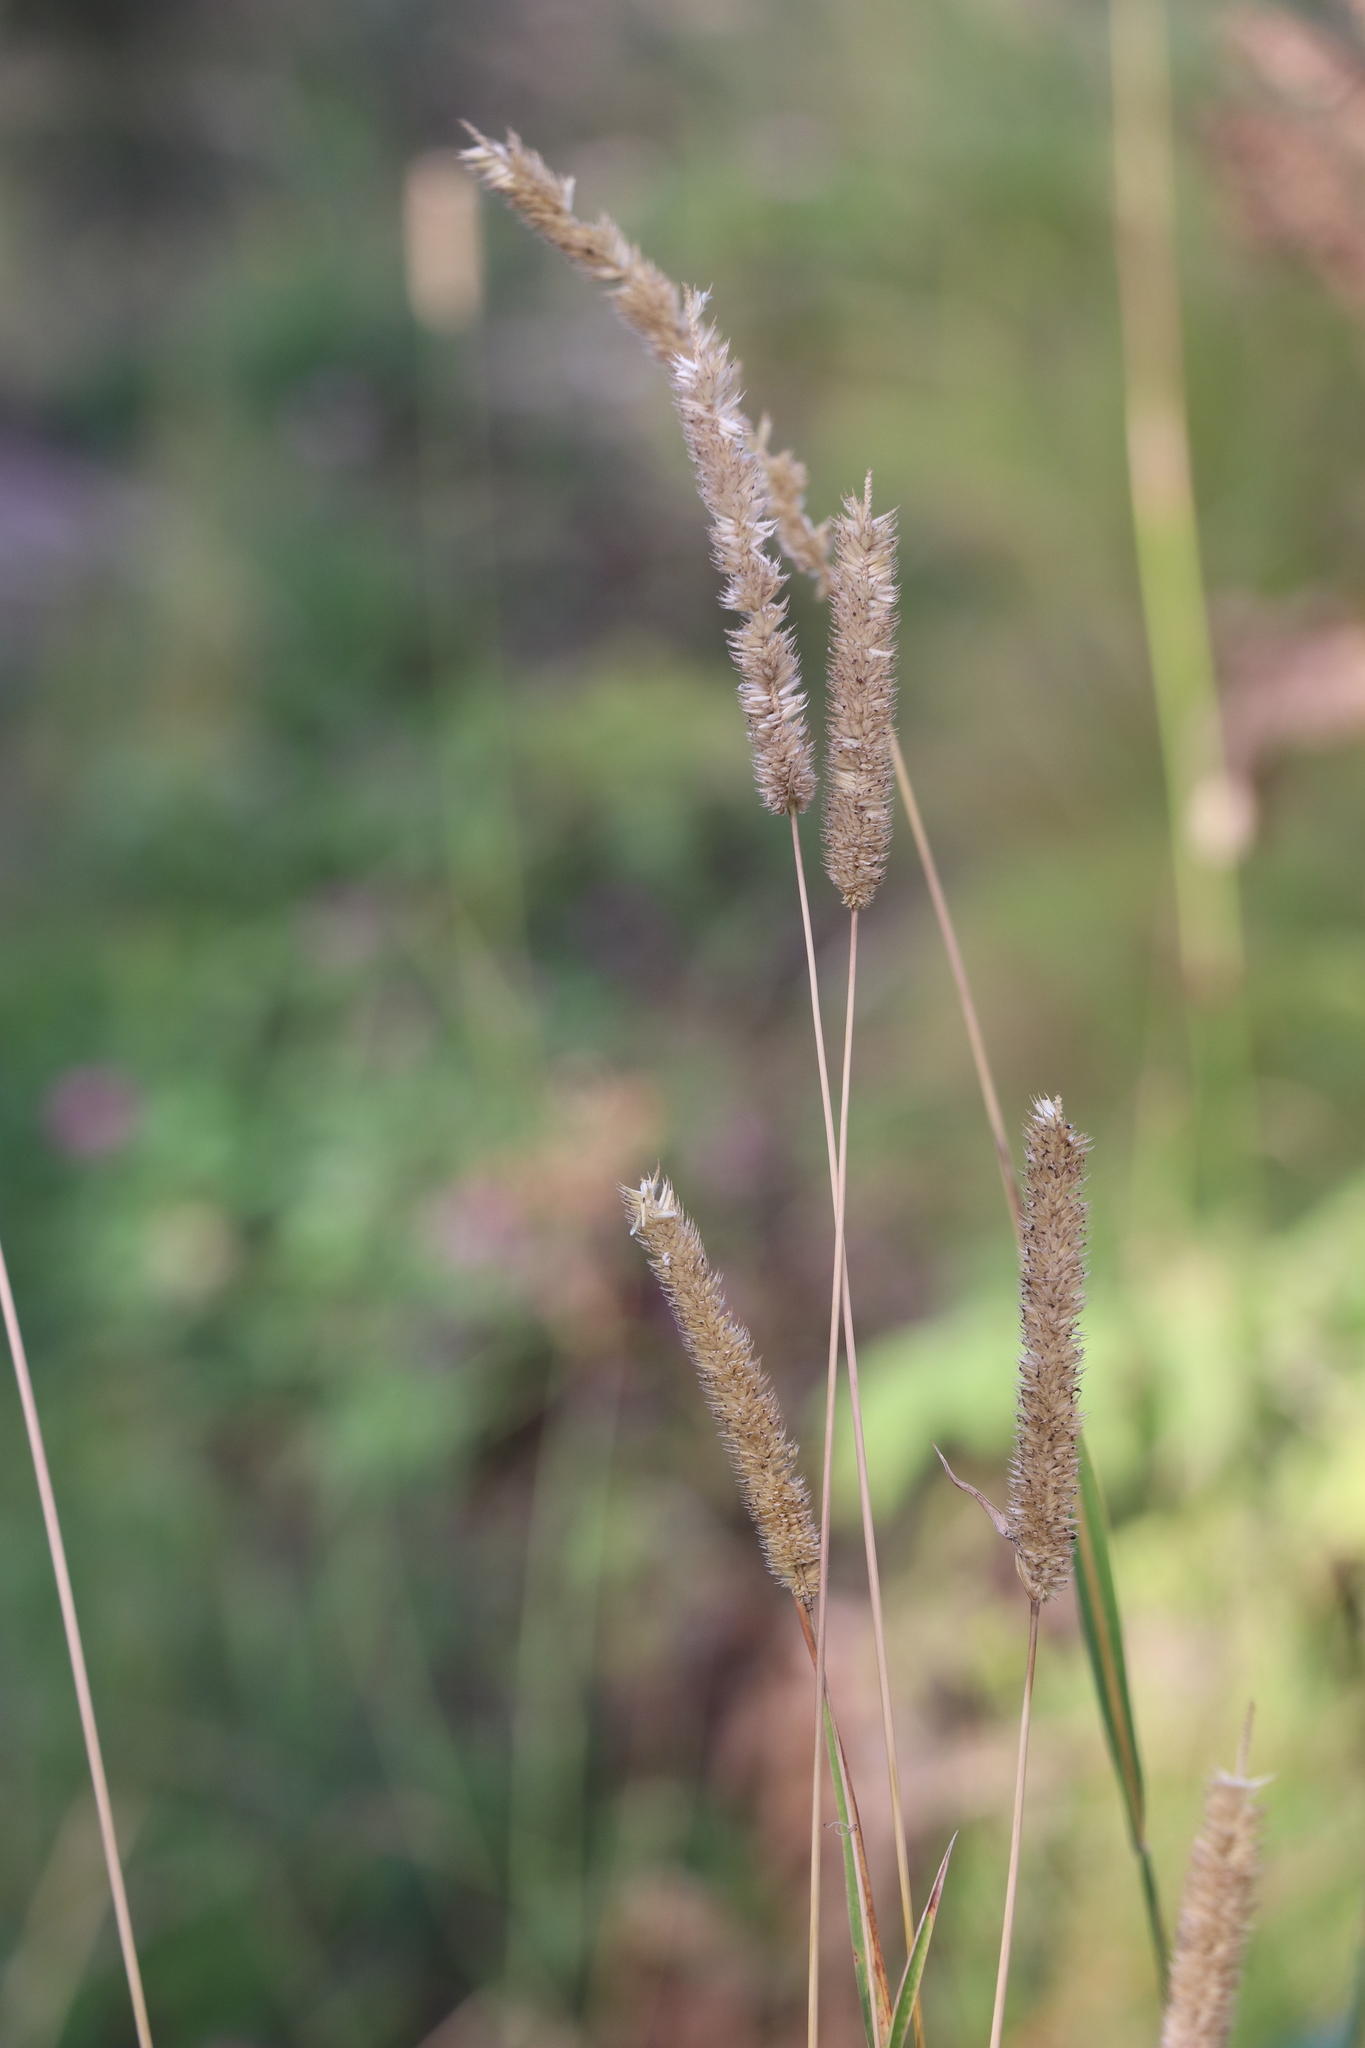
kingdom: Plantae
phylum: Tracheophyta
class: Liliopsida
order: Poales
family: Poaceae
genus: Phleum
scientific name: Phleum pratense
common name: Timothy grass
